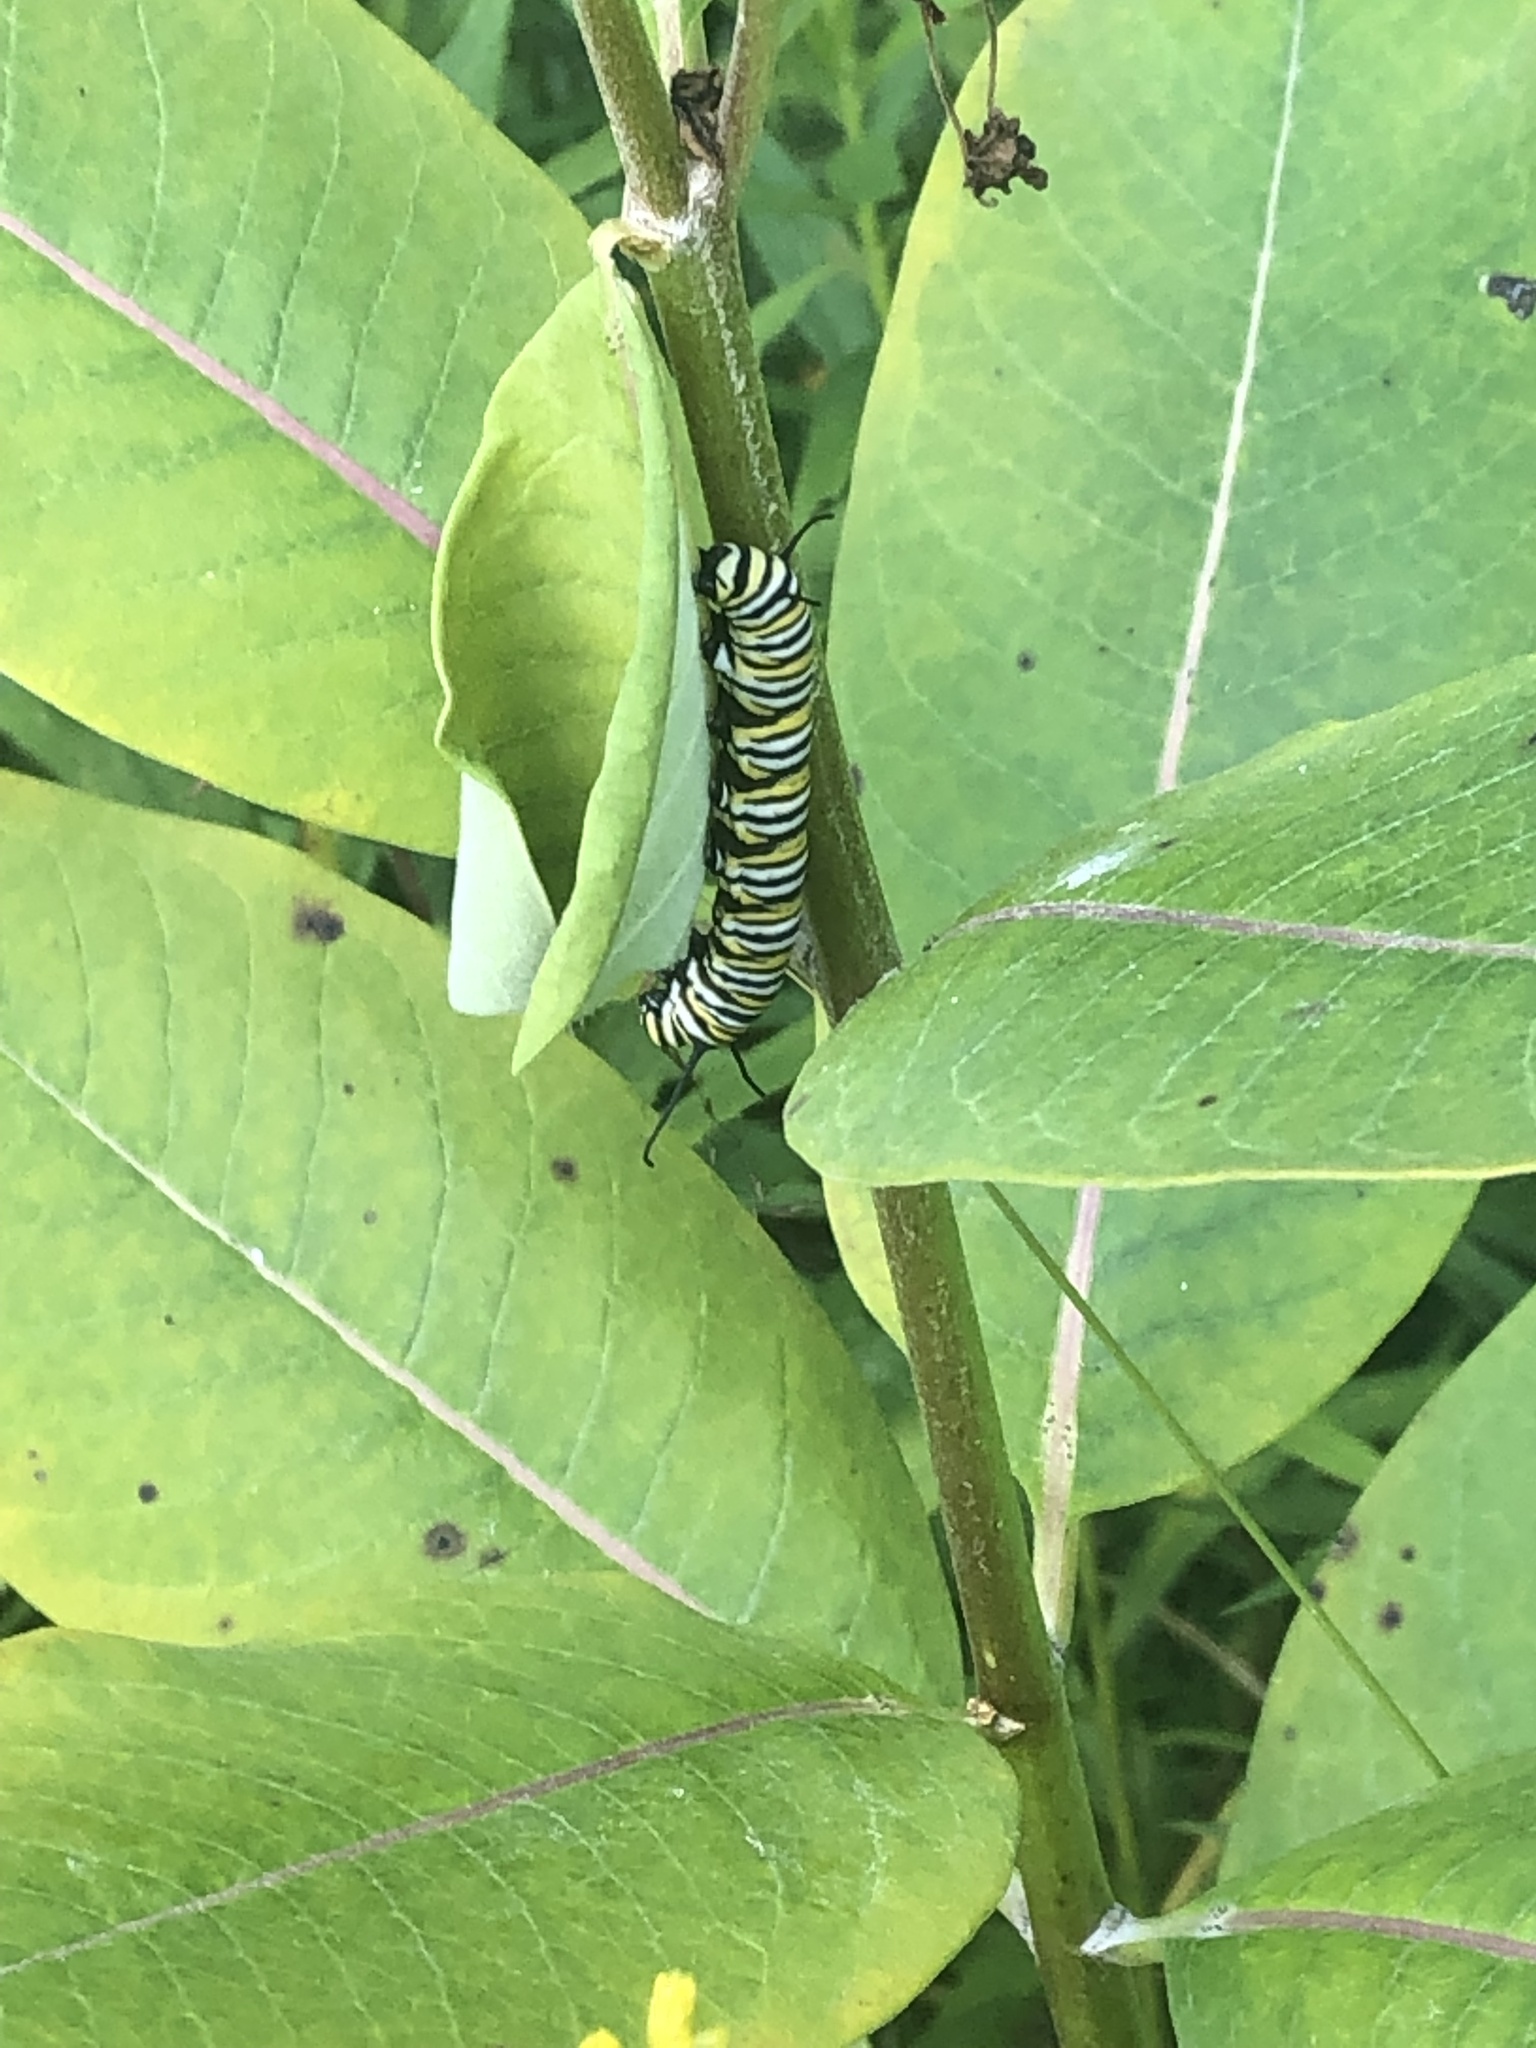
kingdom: Animalia
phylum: Arthropoda
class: Insecta
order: Lepidoptera
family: Nymphalidae
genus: Danaus
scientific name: Danaus plexippus
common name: Monarch
